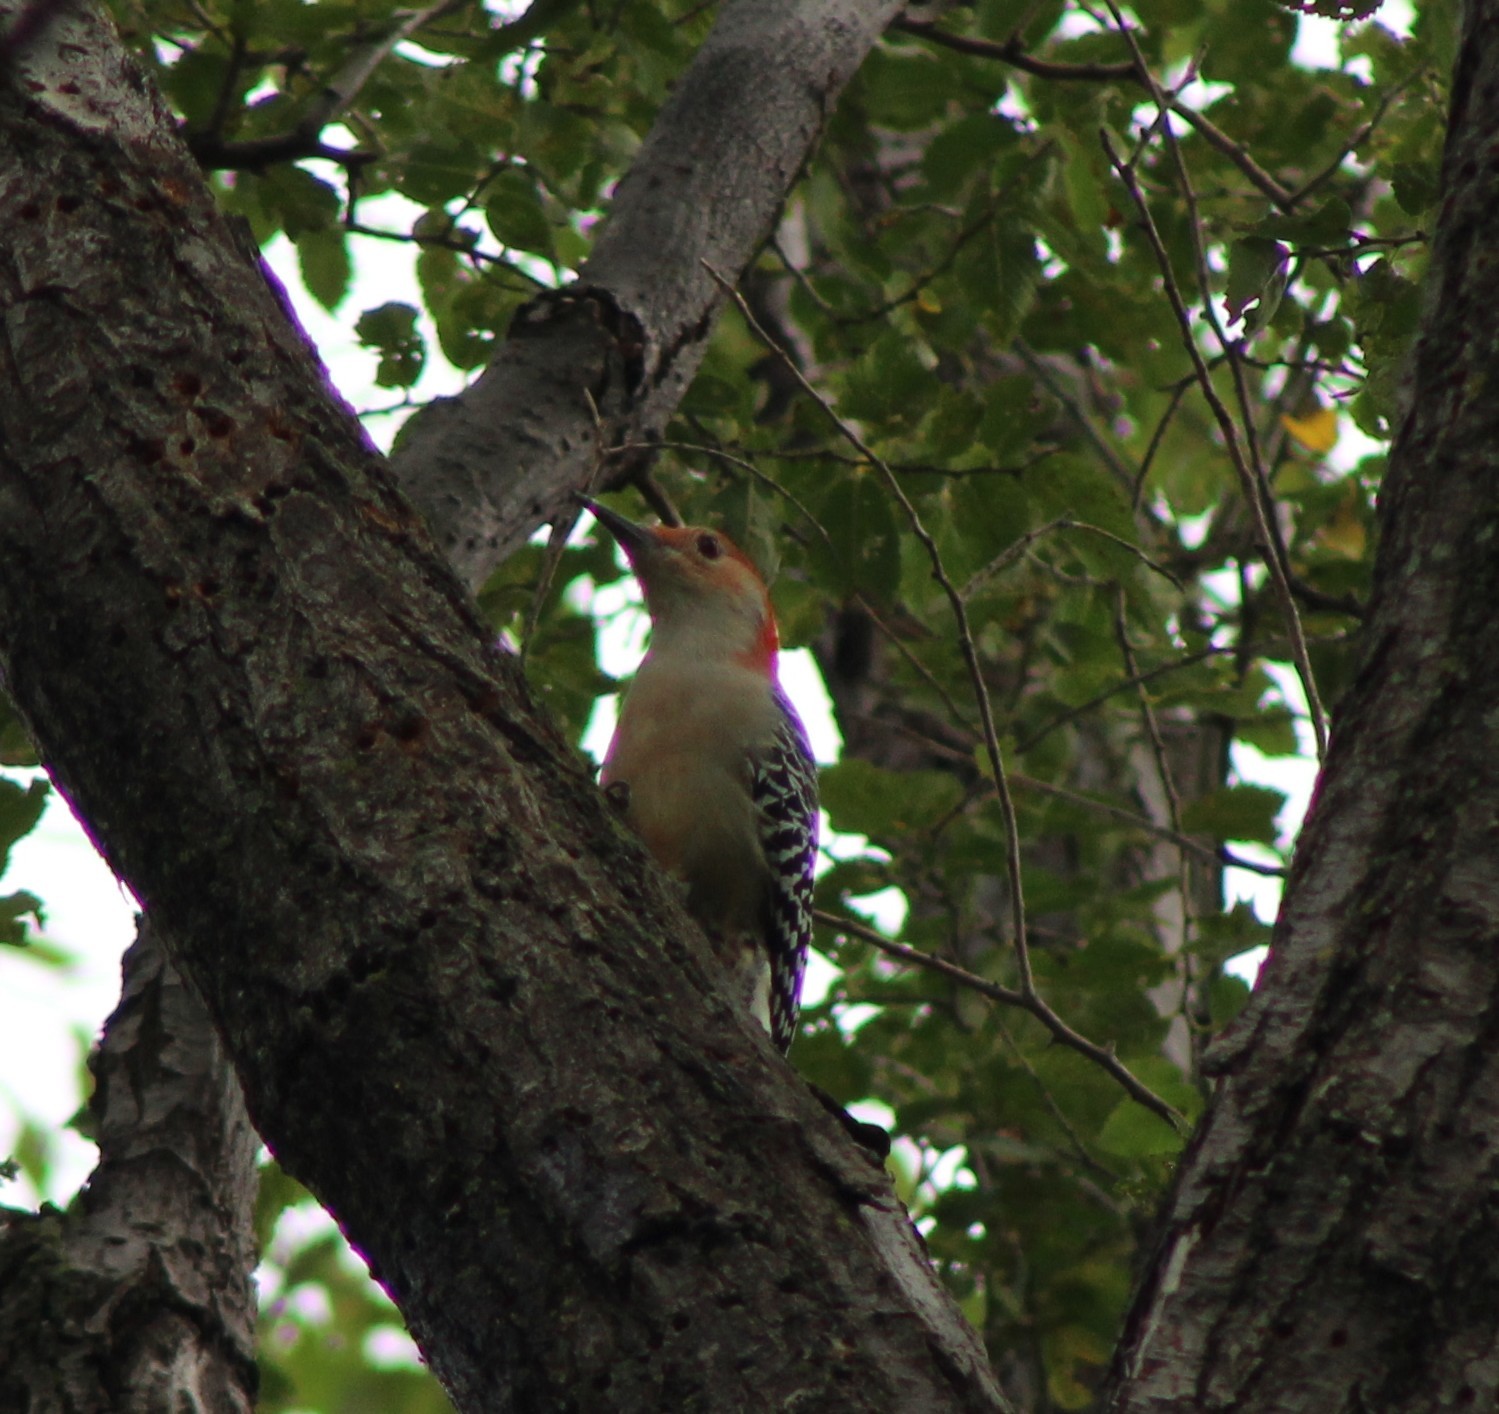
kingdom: Animalia
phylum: Chordata
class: Aves
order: Piciformes
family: Picidae
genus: Melanerpes
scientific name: Melanerpes carolinus
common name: Red-bellied woodpecker
